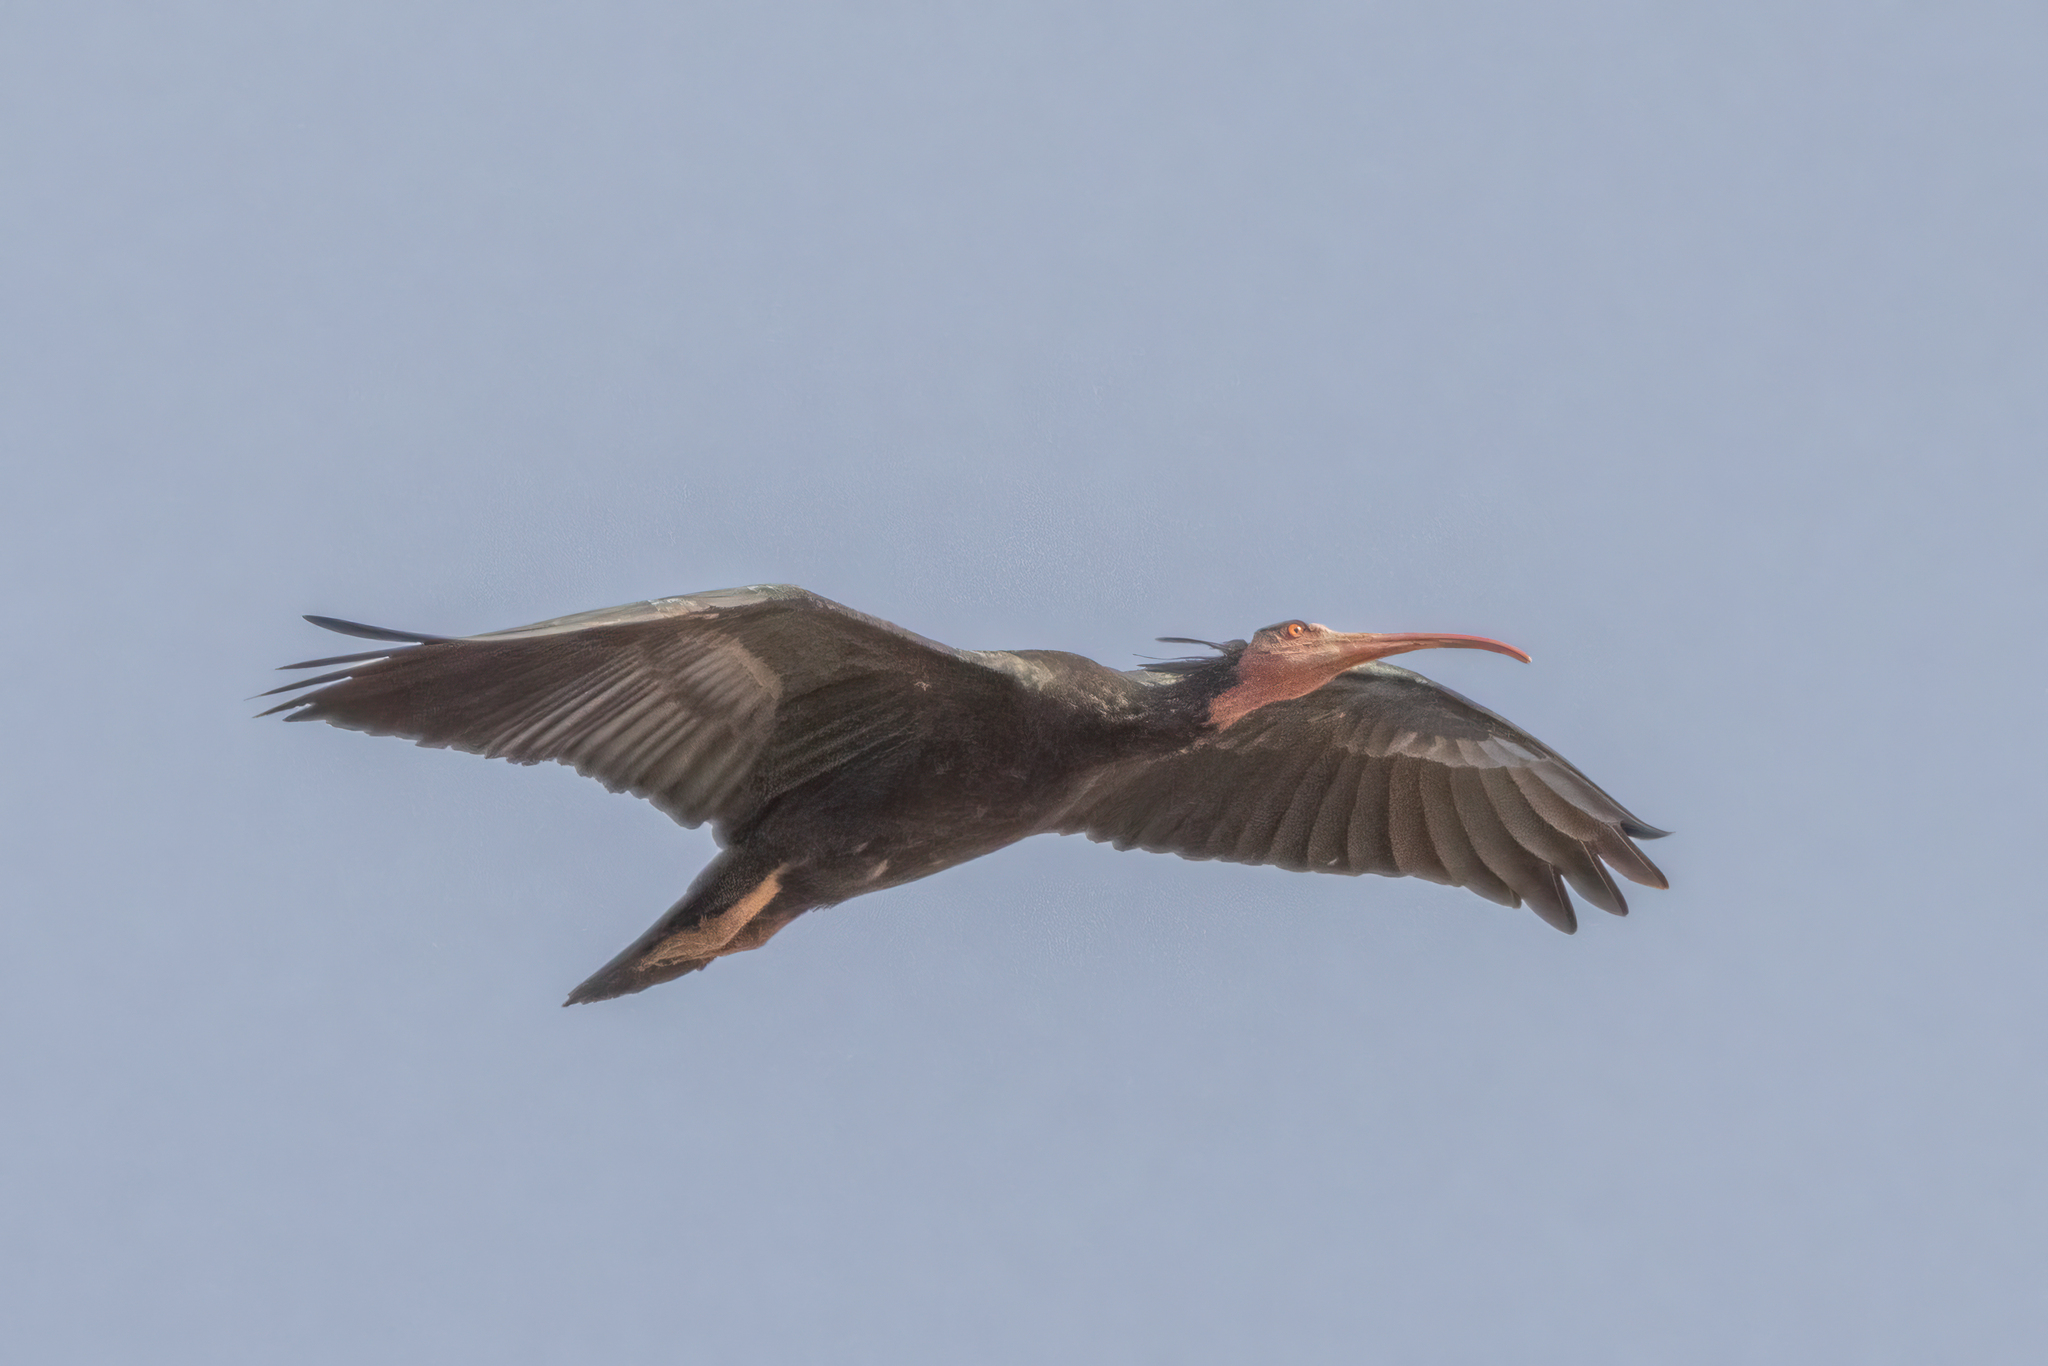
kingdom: Animalia
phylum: Chordata
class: Aves
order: Pelecaniformes
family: Threskiornithidae
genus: Geronticus
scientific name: Geronticus eremita
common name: Northern bald ibis
